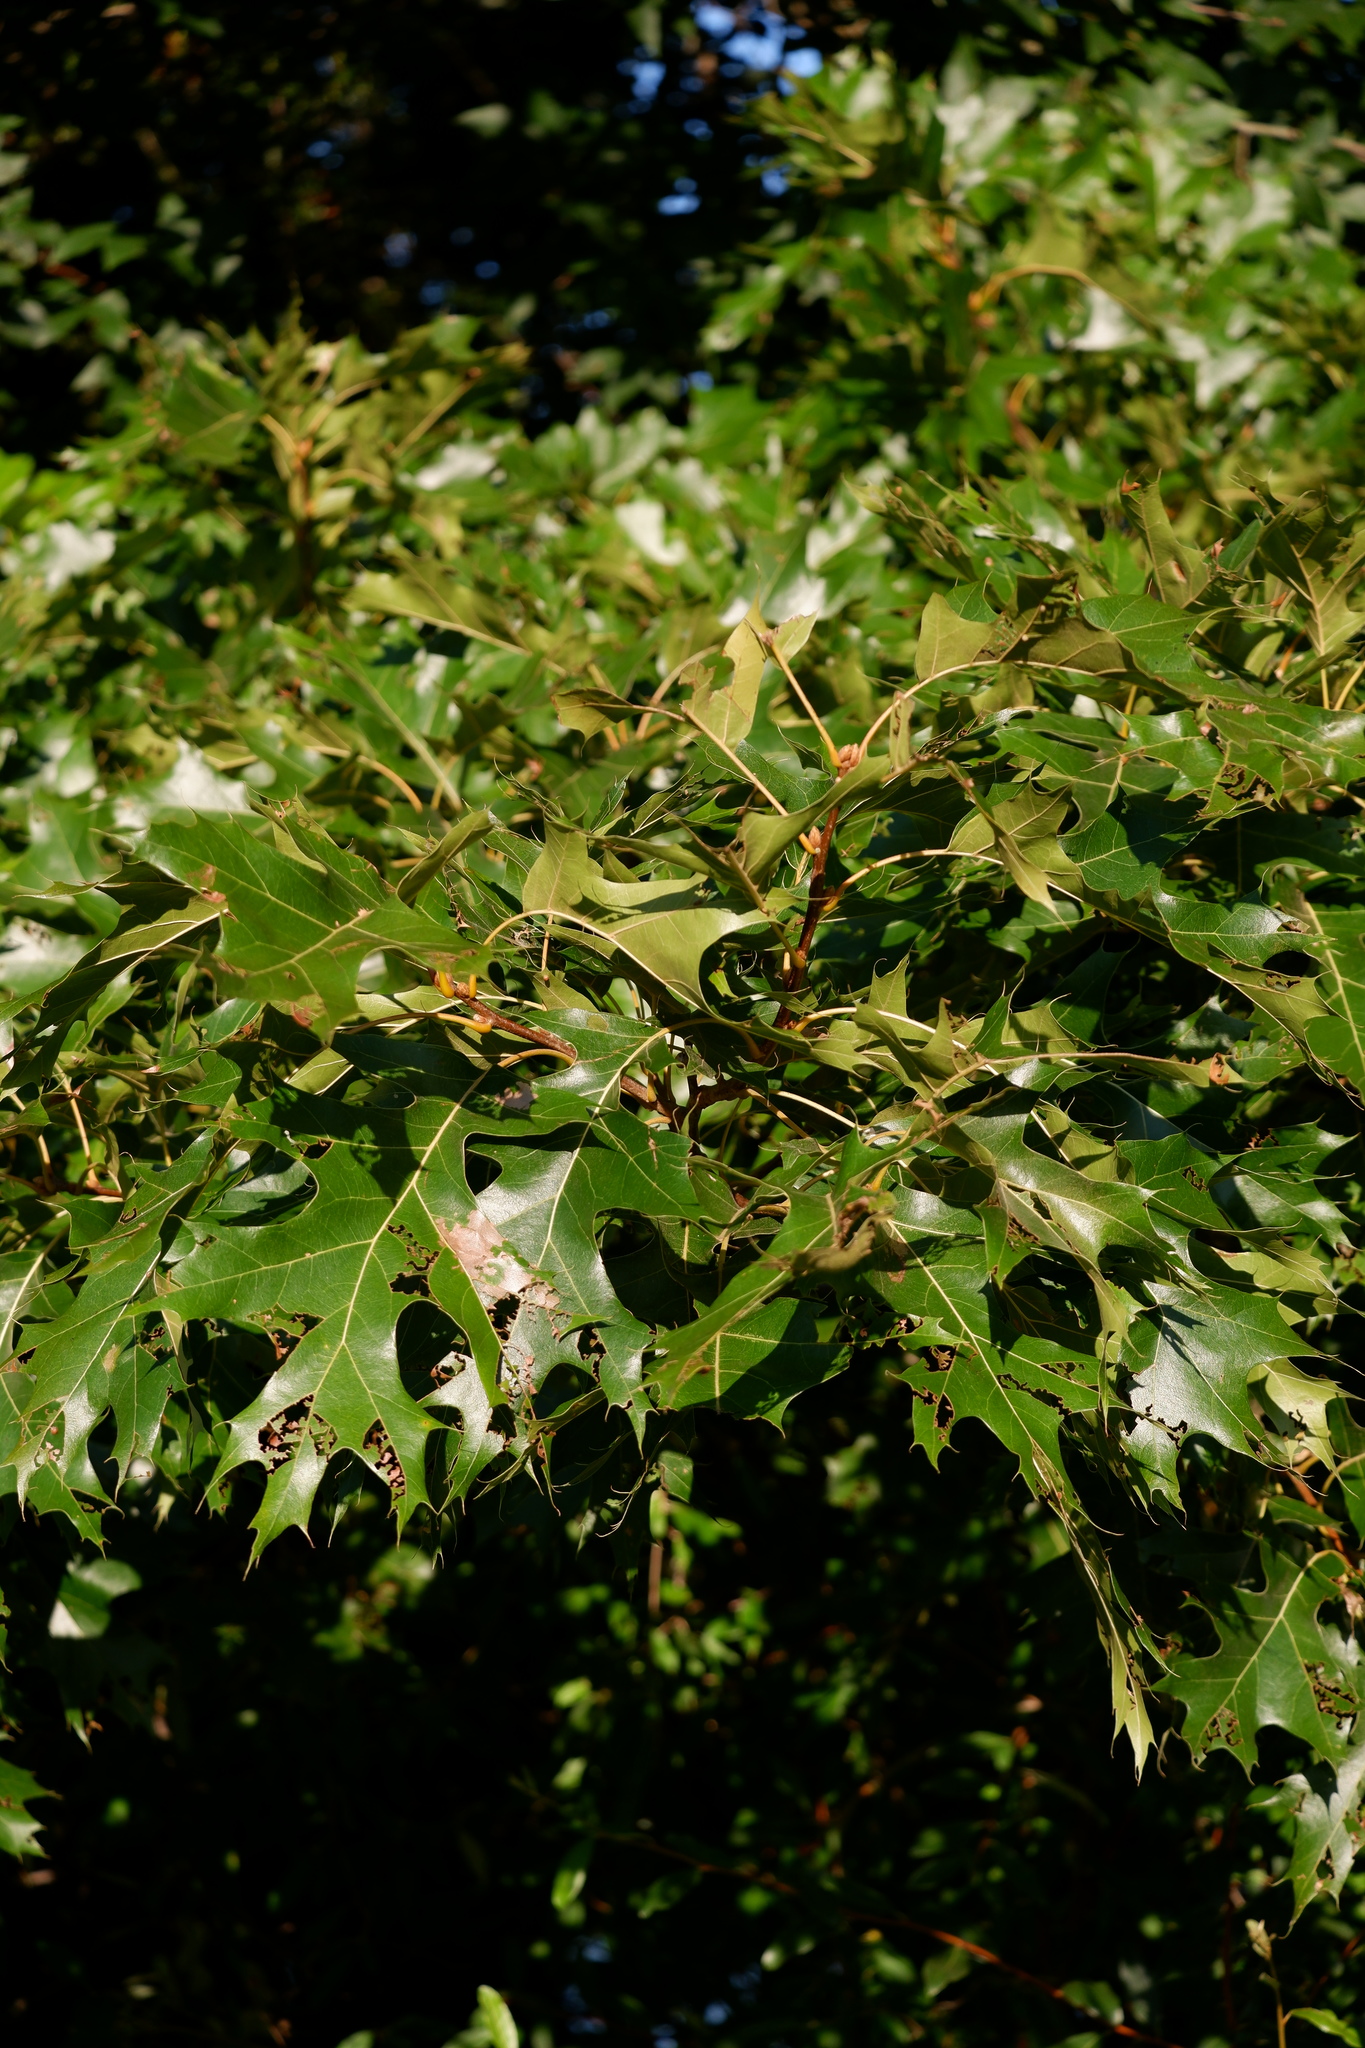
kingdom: Plantae
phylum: Tracheophyta
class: Magnoliopsida
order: Fagales
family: Fagaceae
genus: Quercus
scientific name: Quercus velutina
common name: Black oak
